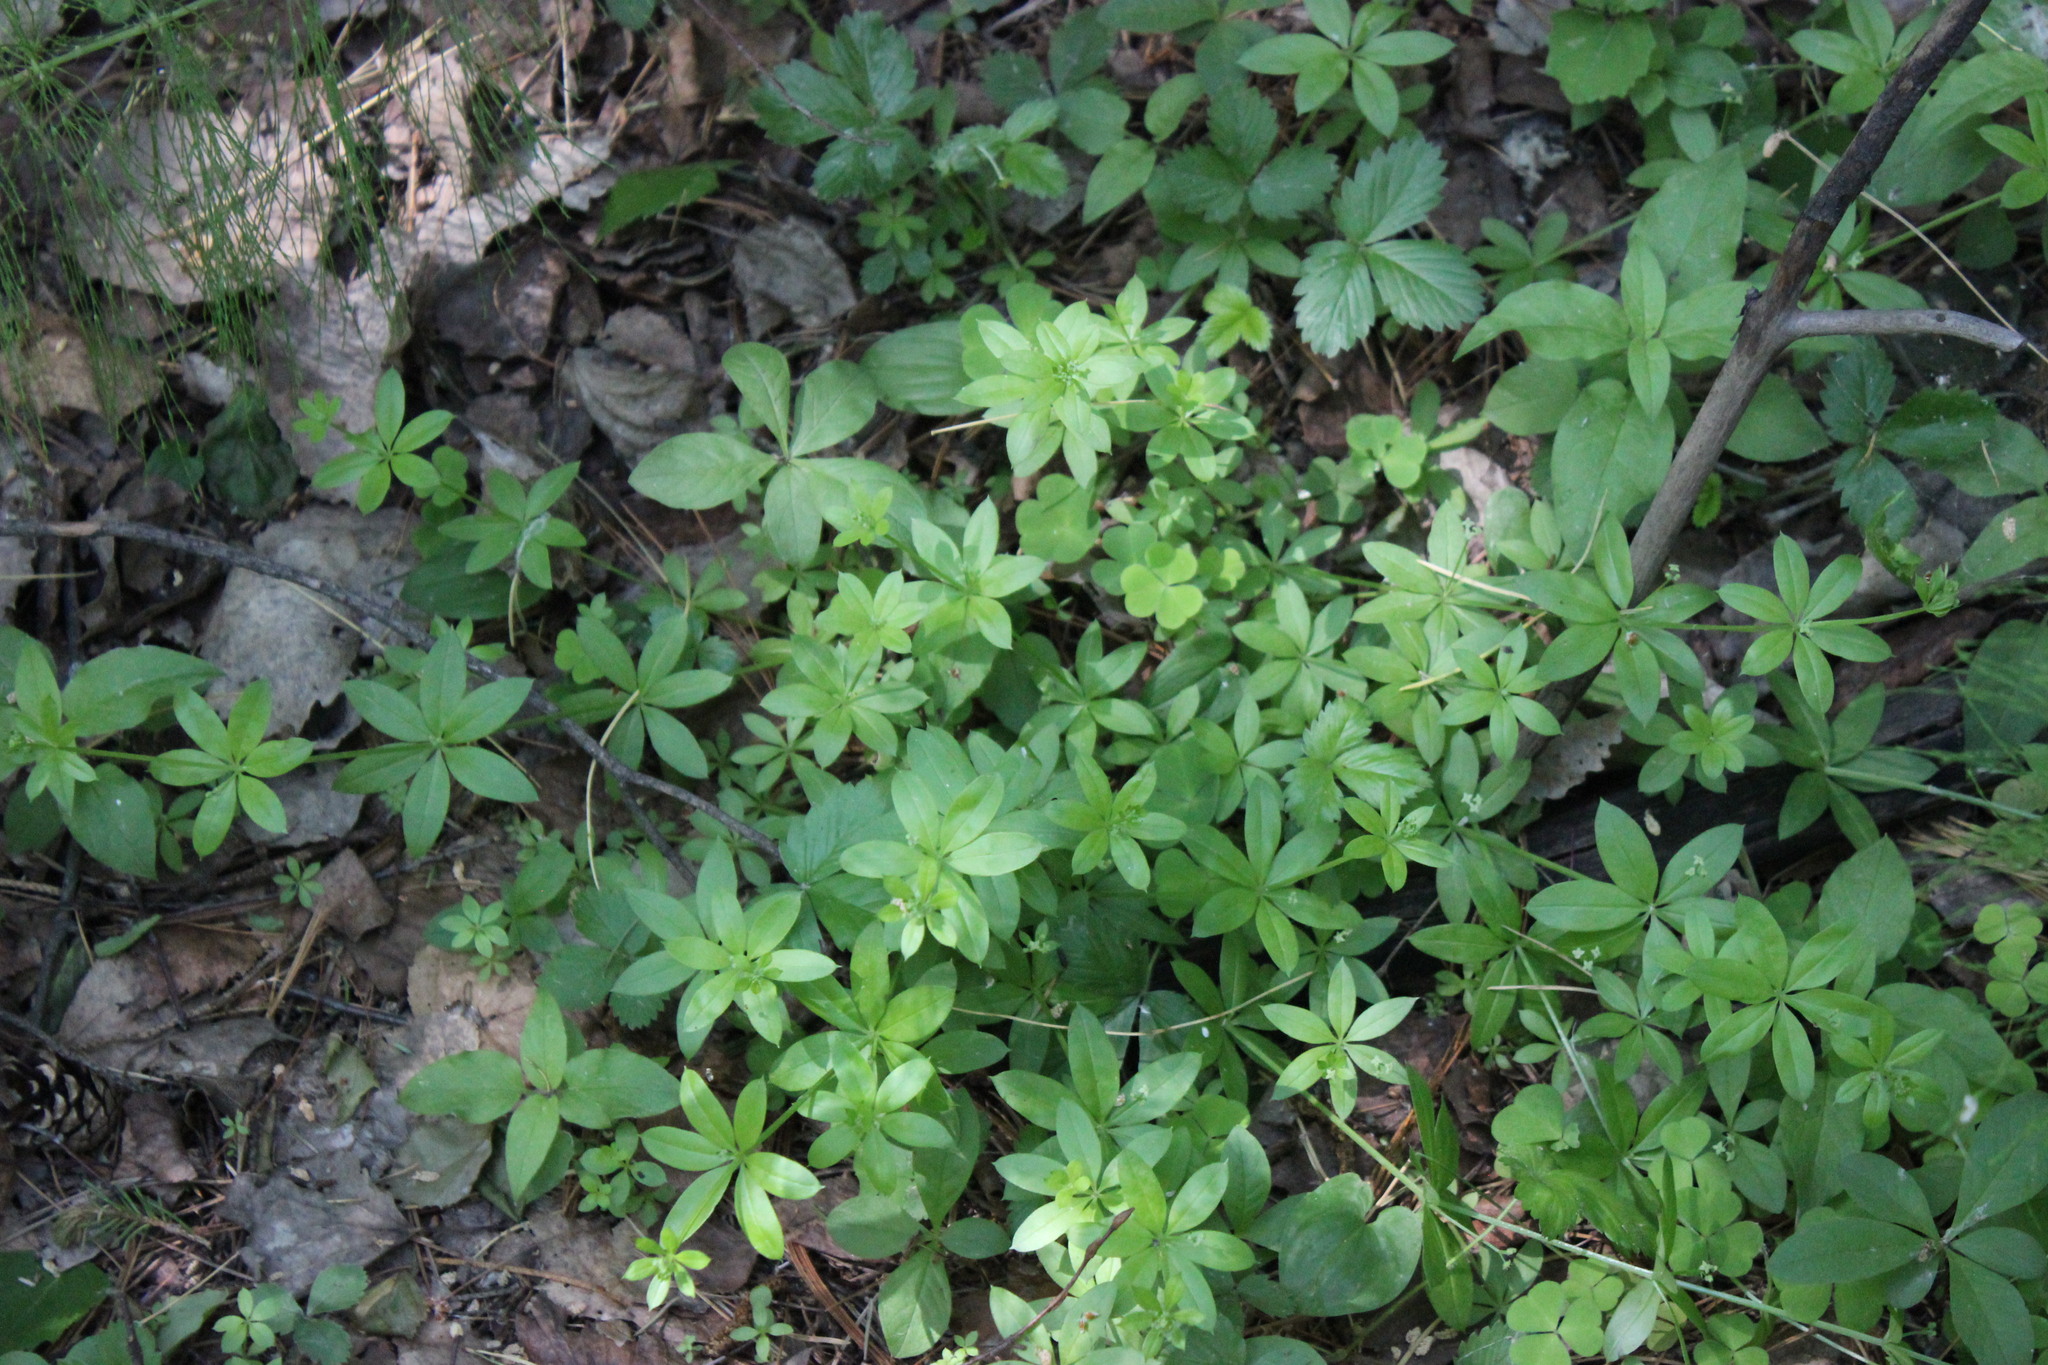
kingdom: Plantae
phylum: Tracheophyta
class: Magnoliopsida
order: Gentianales
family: Rubiaceae
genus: Galium
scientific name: Galium triflorum
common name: Fragrant bedstraw
